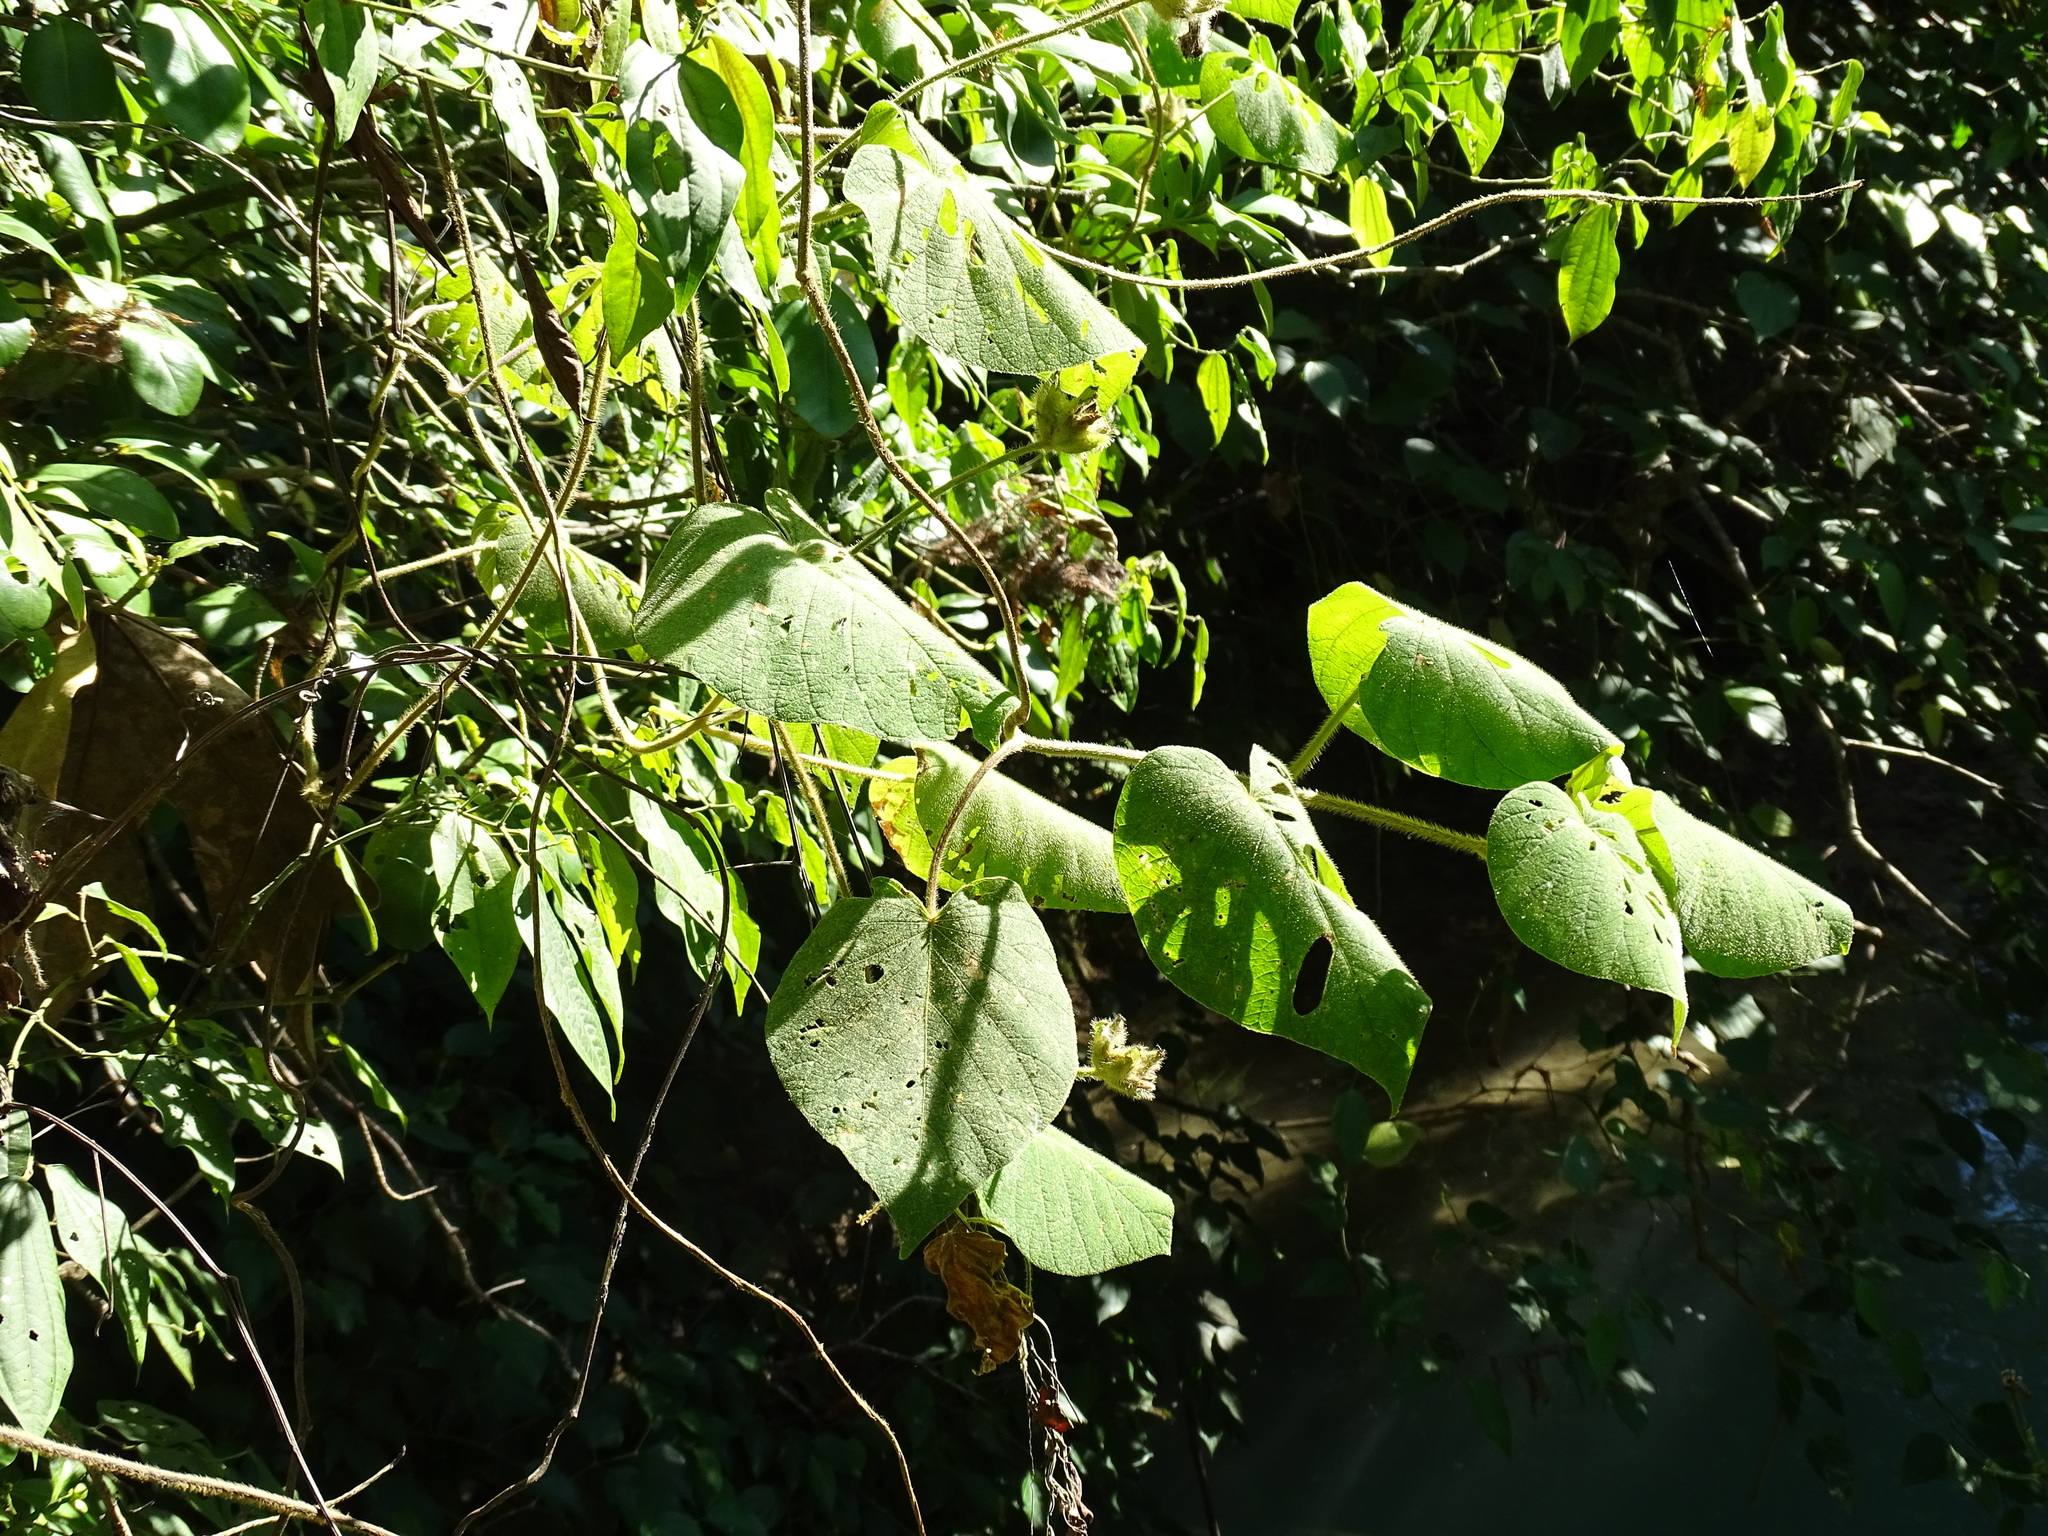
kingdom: Plantae
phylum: Tracheophyta
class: Magnoliopsida
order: Solanales
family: Convolvulaceae
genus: Ipomoea
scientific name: Ipomoea villifera
